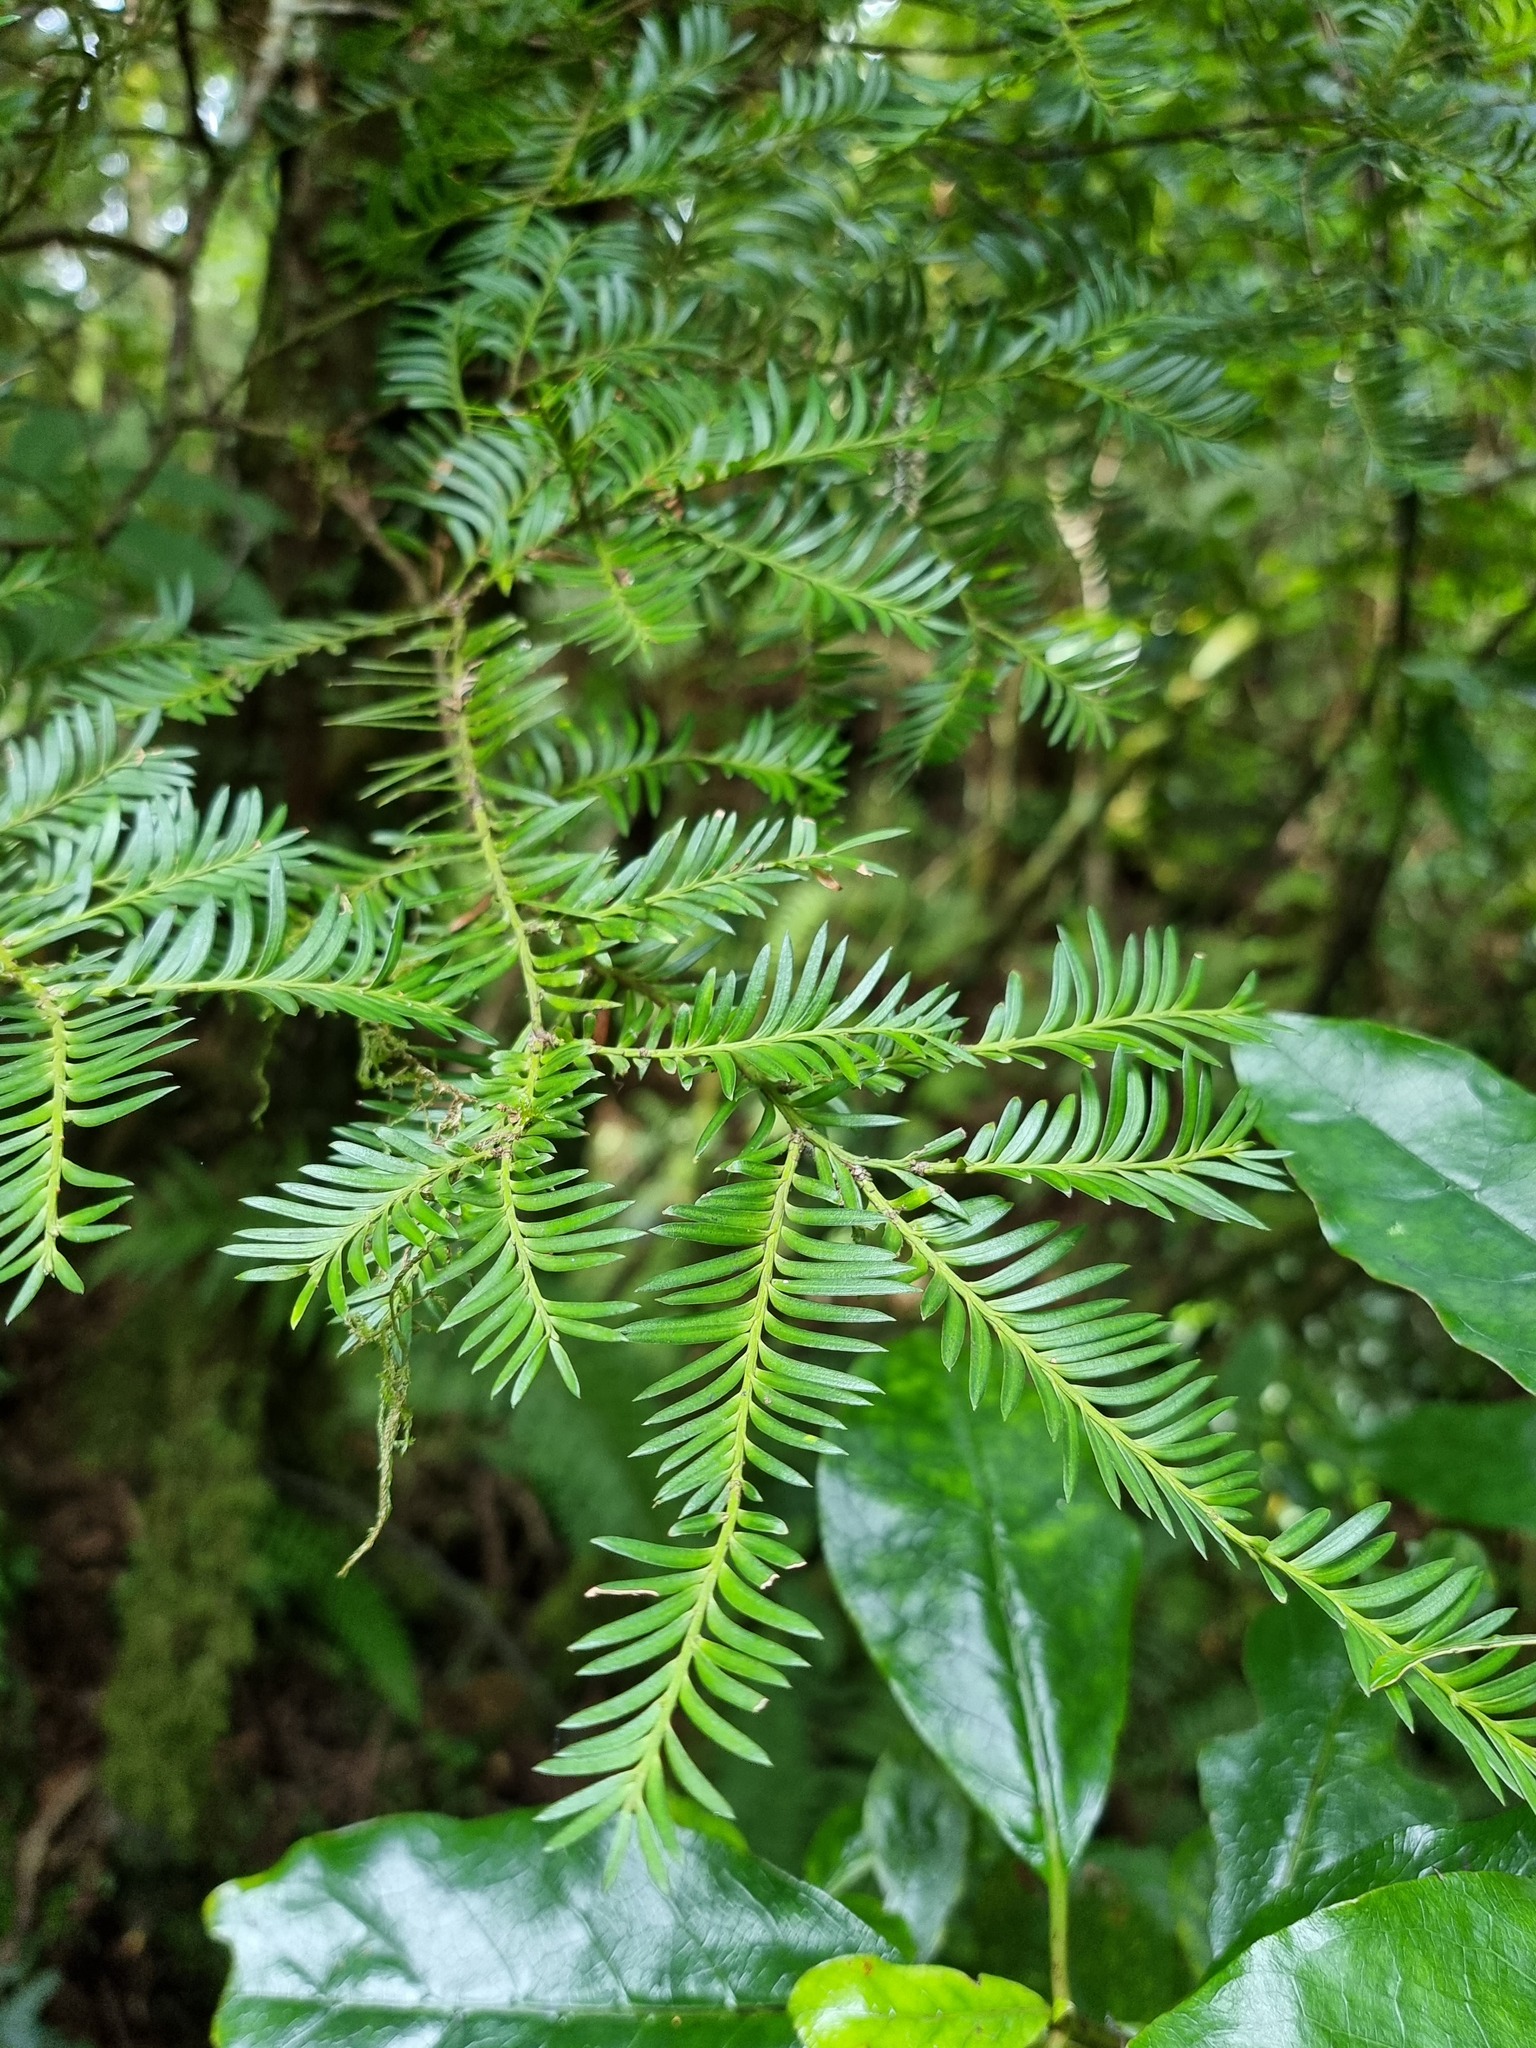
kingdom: Plantae
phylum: Tracheophyta
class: Pinopsida
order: Pinales
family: Podocarpaceae
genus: Prumnopitys
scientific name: Prumnopitys ferruginea
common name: Brown pine
